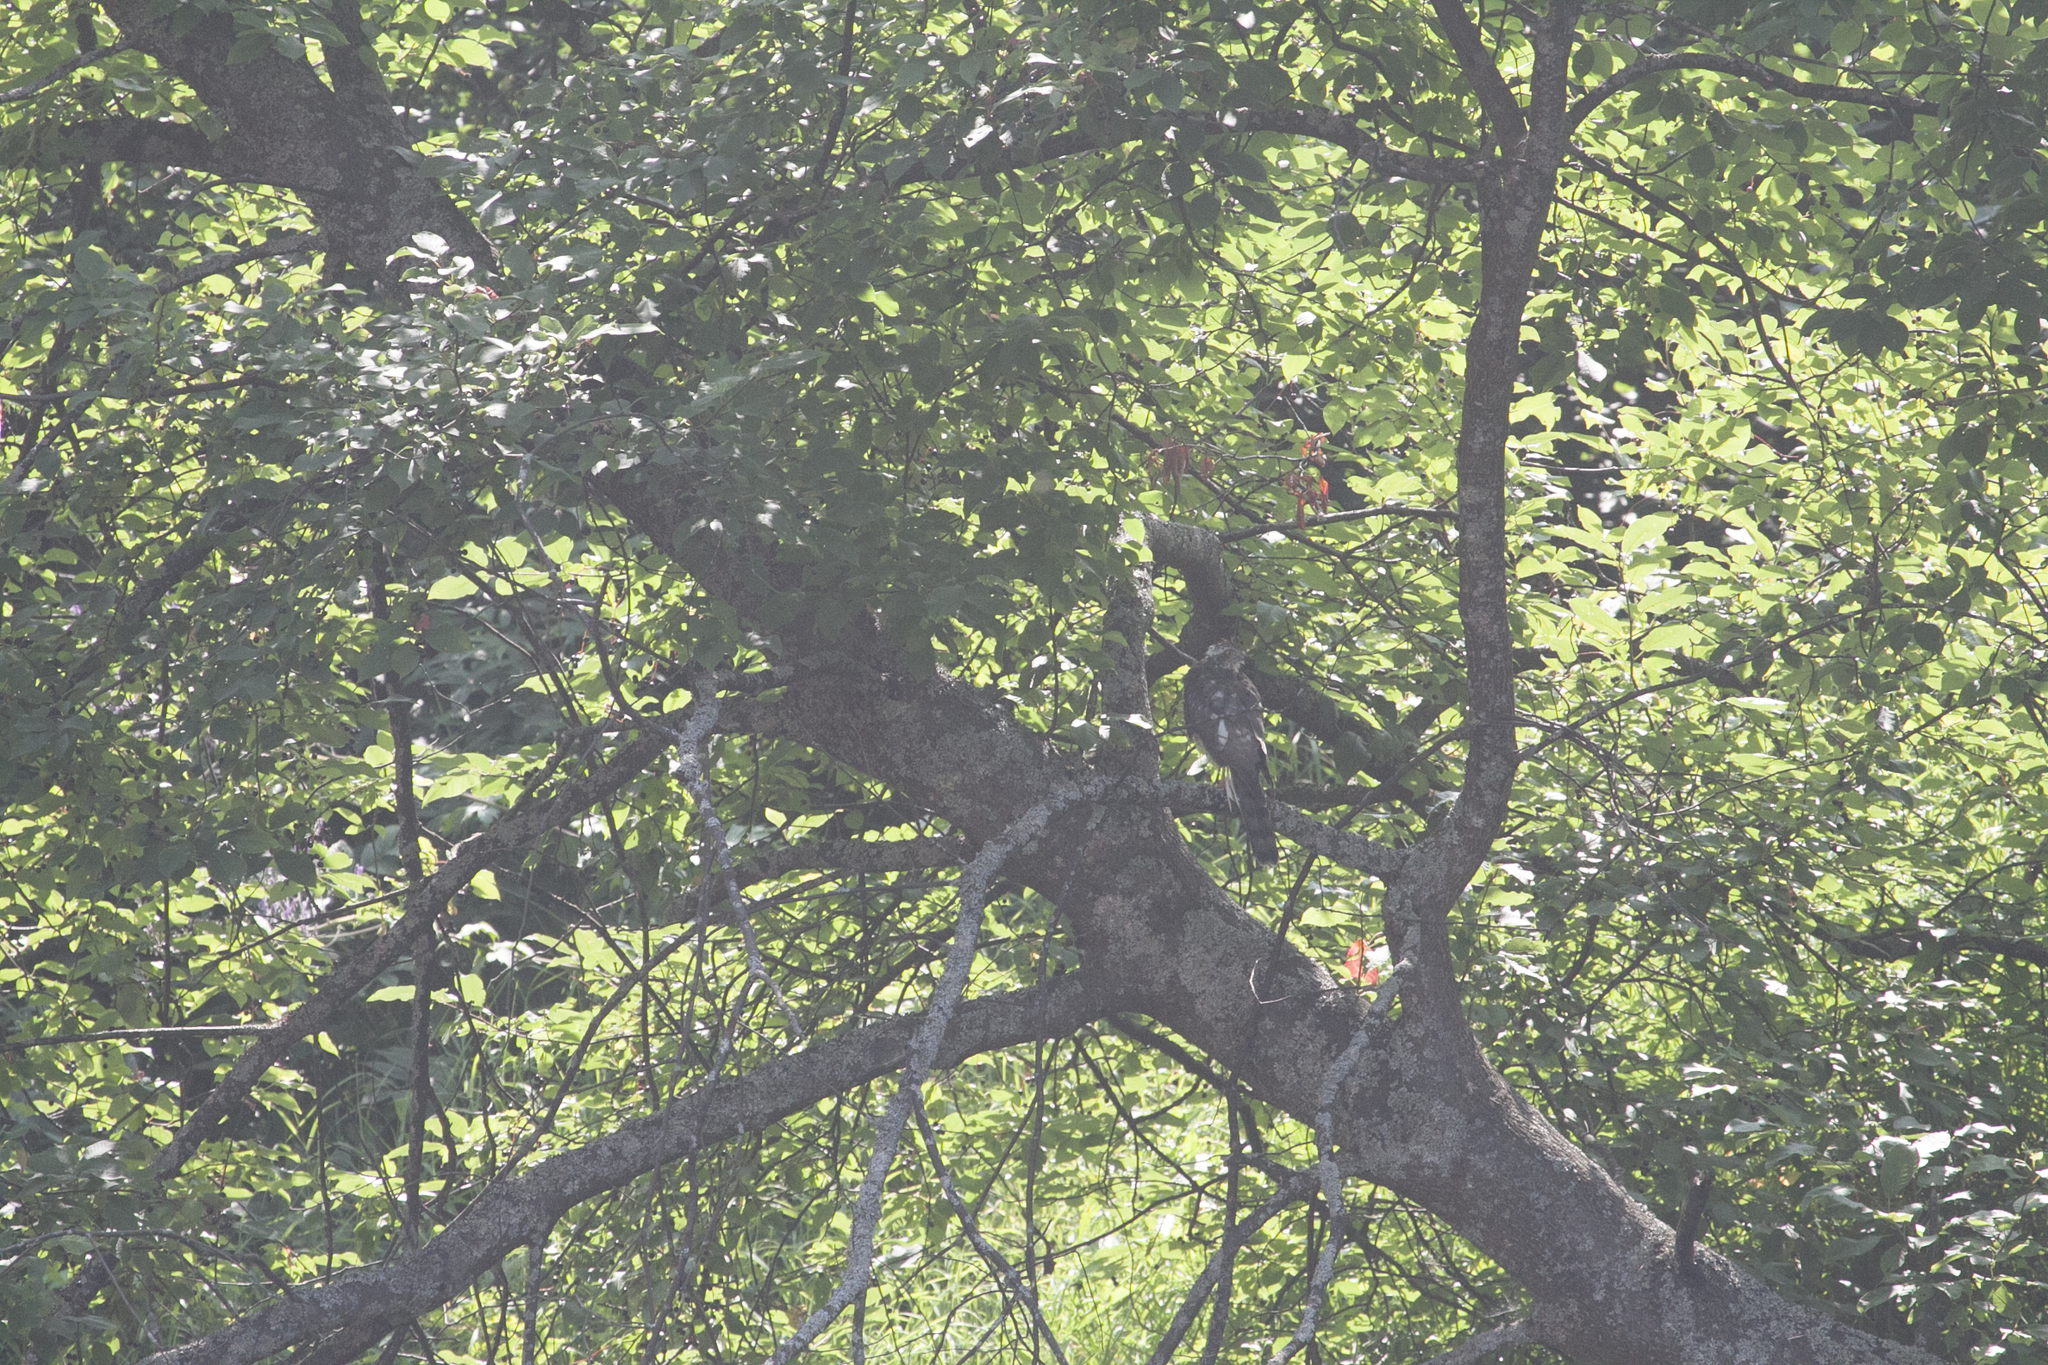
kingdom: Animalia
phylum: Chordata
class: Aves
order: Accipitriformes
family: Accipitridae
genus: Accipiter
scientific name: Accipiter nisus
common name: Eurasian sparrowhawk
